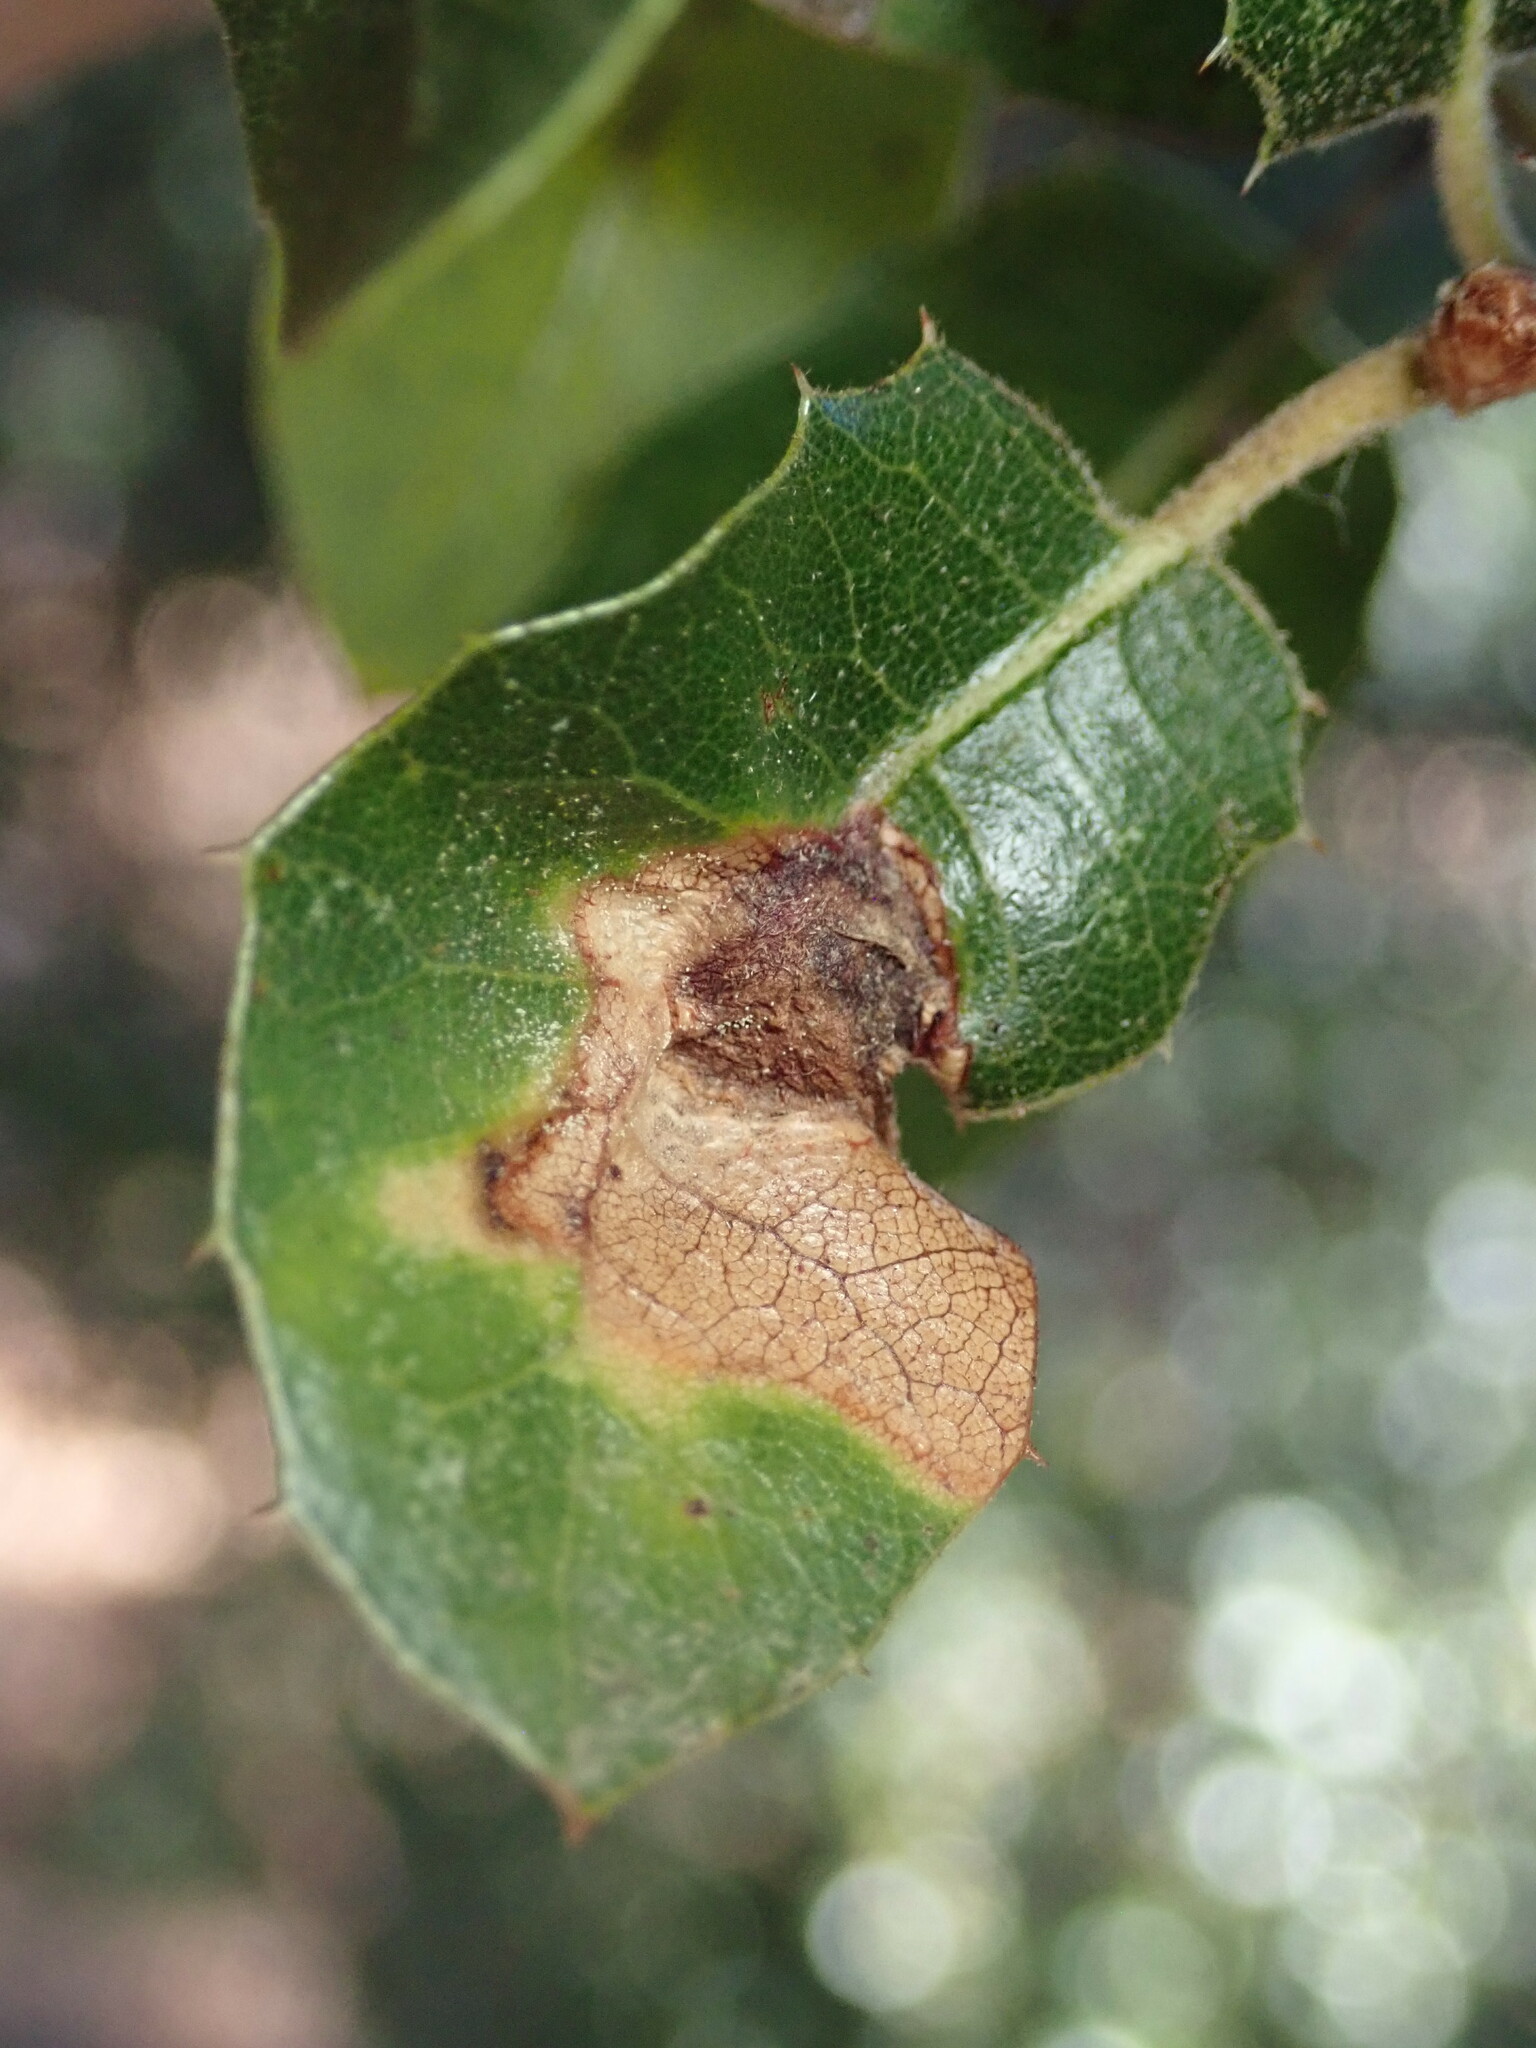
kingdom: Animalia
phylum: Arthropoda
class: Insecta
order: Hymenoptera
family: Cynipidae
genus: Callirhytis
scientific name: Callirhytis
